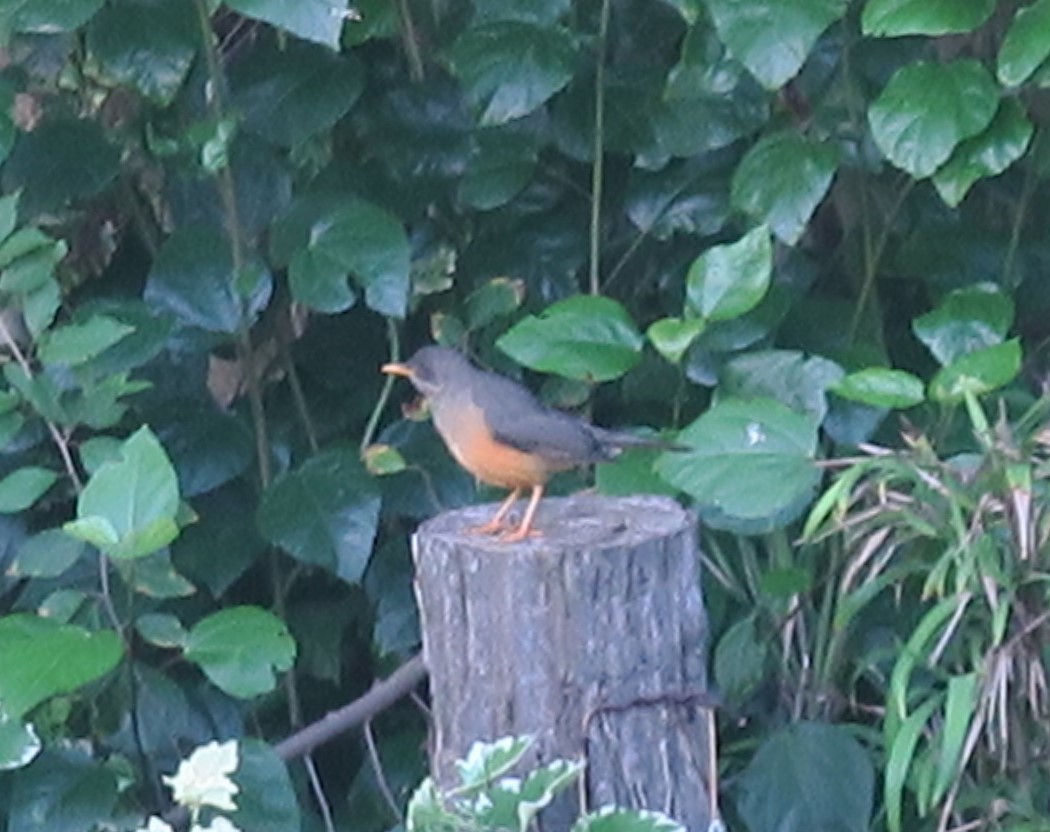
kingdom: Animalia
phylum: Chordata
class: Aves
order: Passeriformes
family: Turdidae
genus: Turdus
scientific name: Turdus olivaceus
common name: Olive thrush
